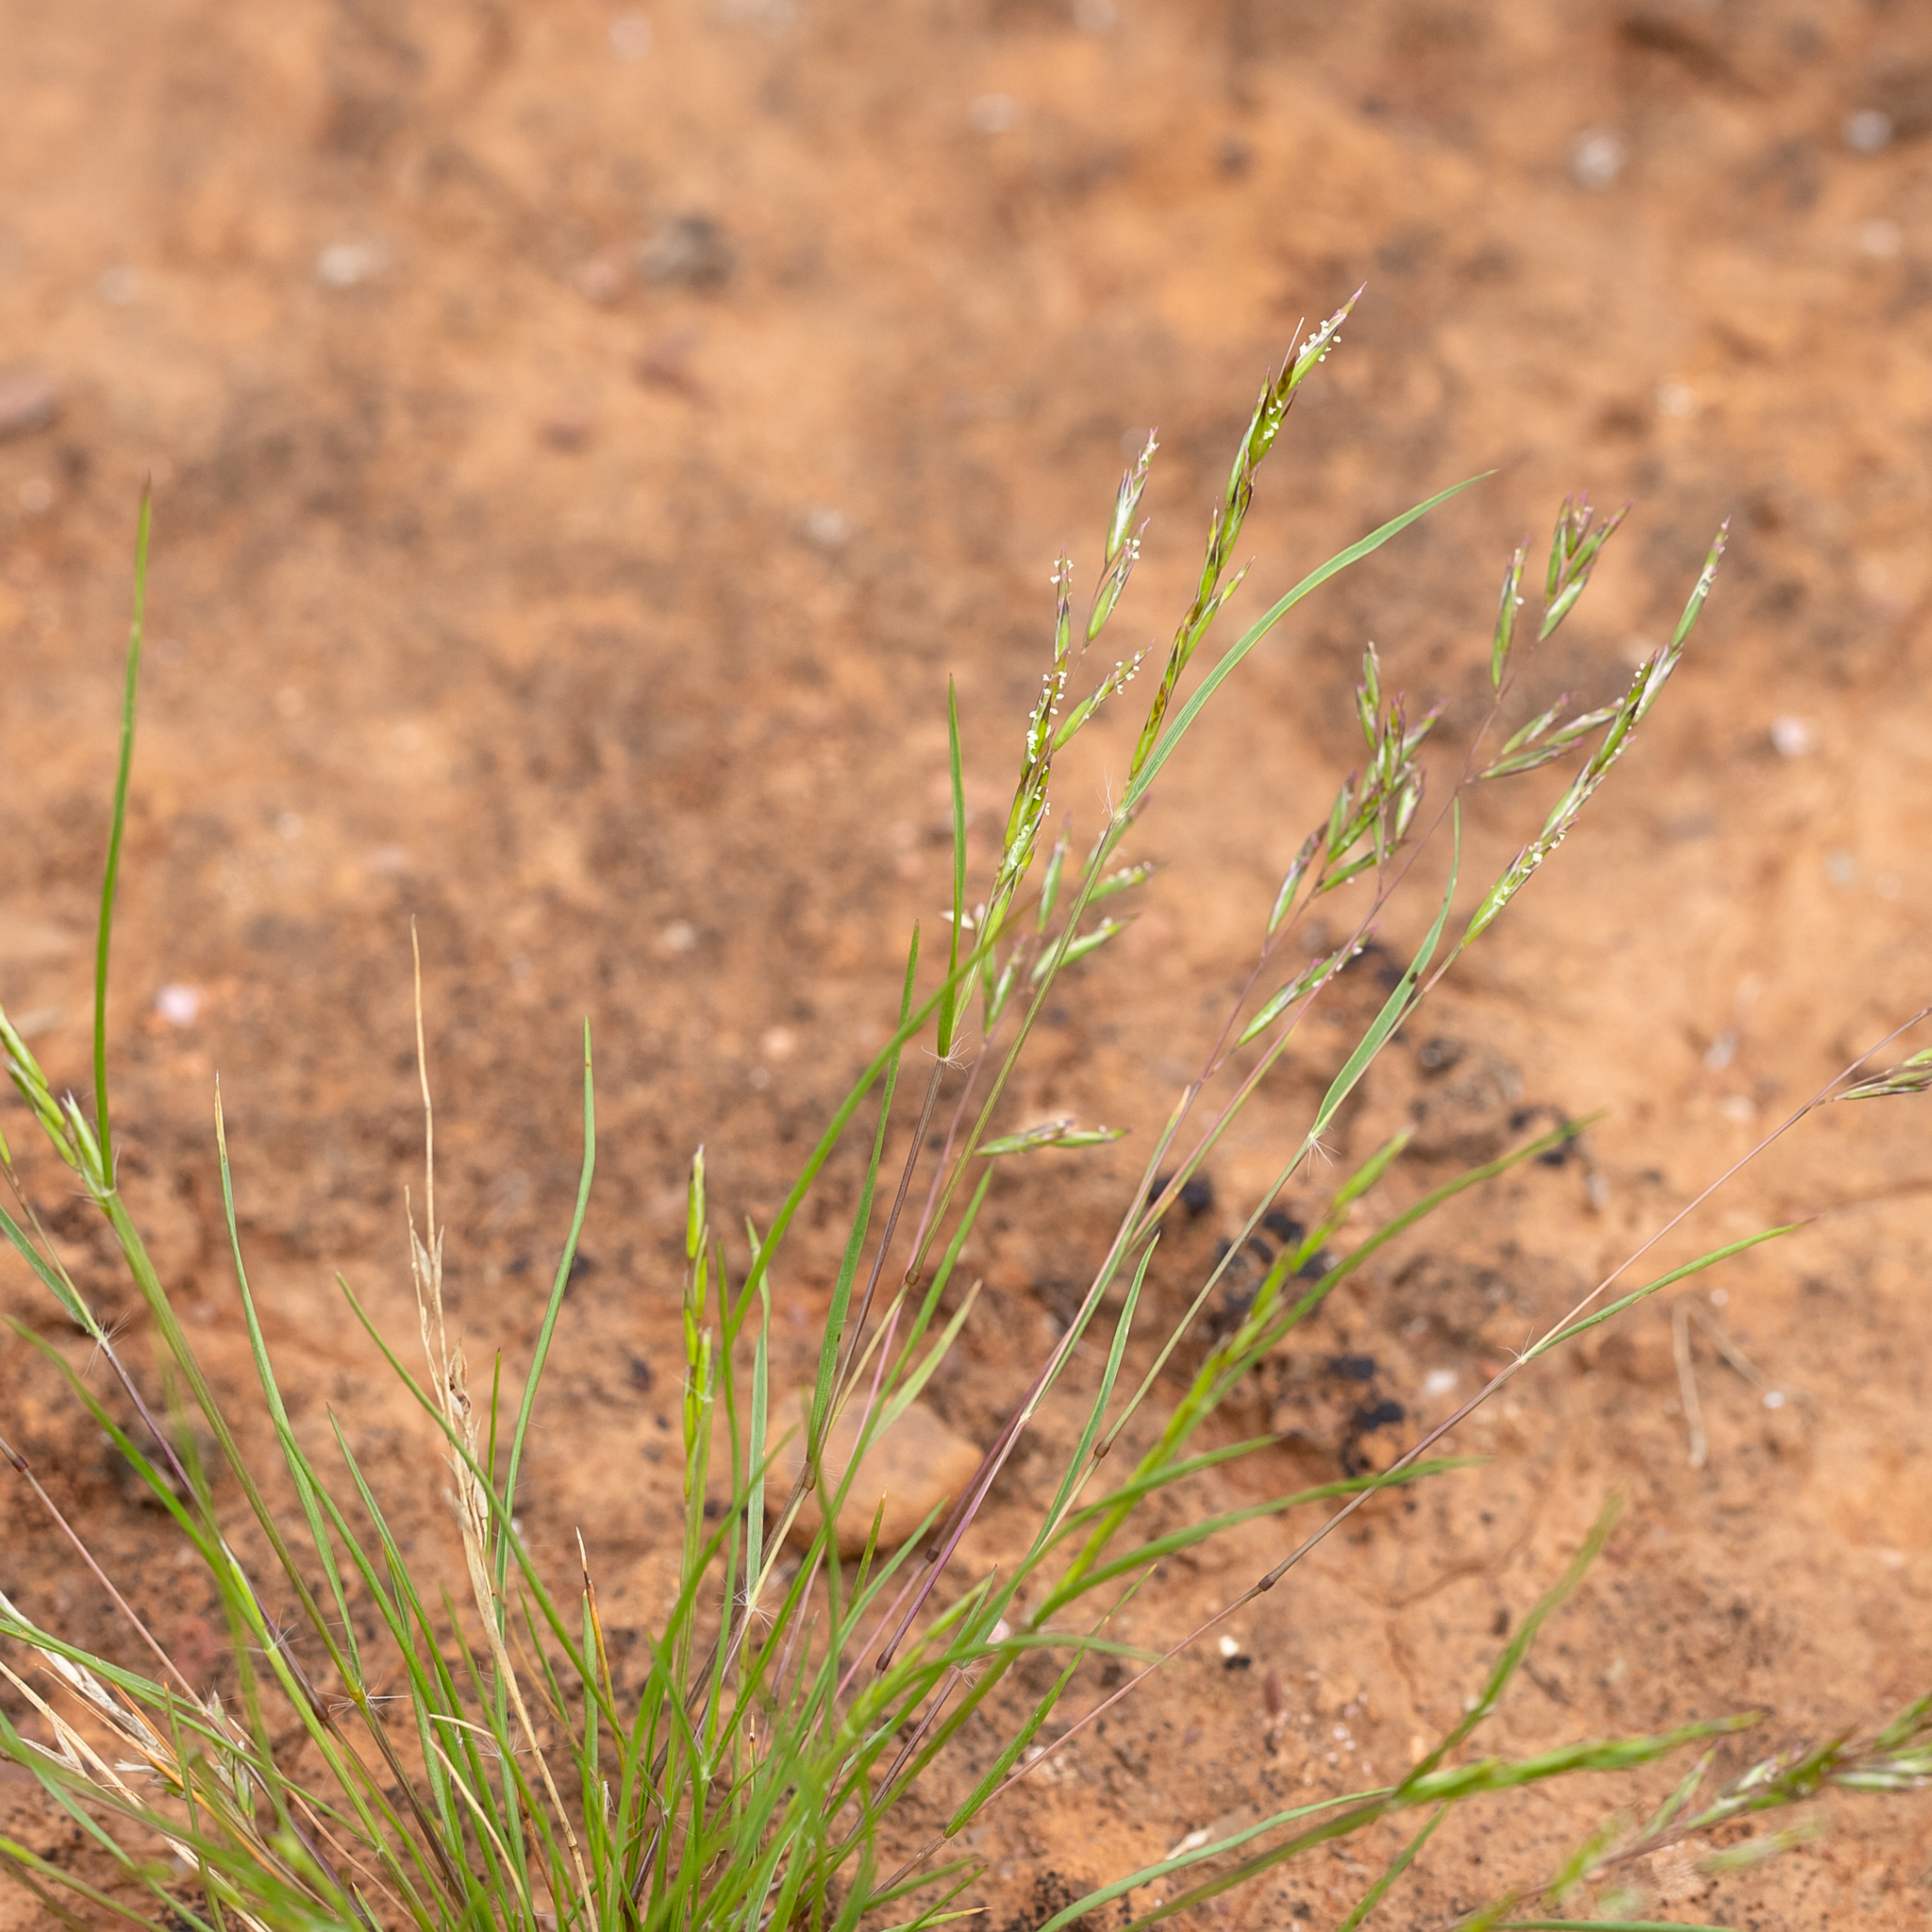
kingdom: Plantae
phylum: Tracheophyta
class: Liliopsida
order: Poales
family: Poaceae
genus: Schismus
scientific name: Schismus barbatus
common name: Kelch-grass
